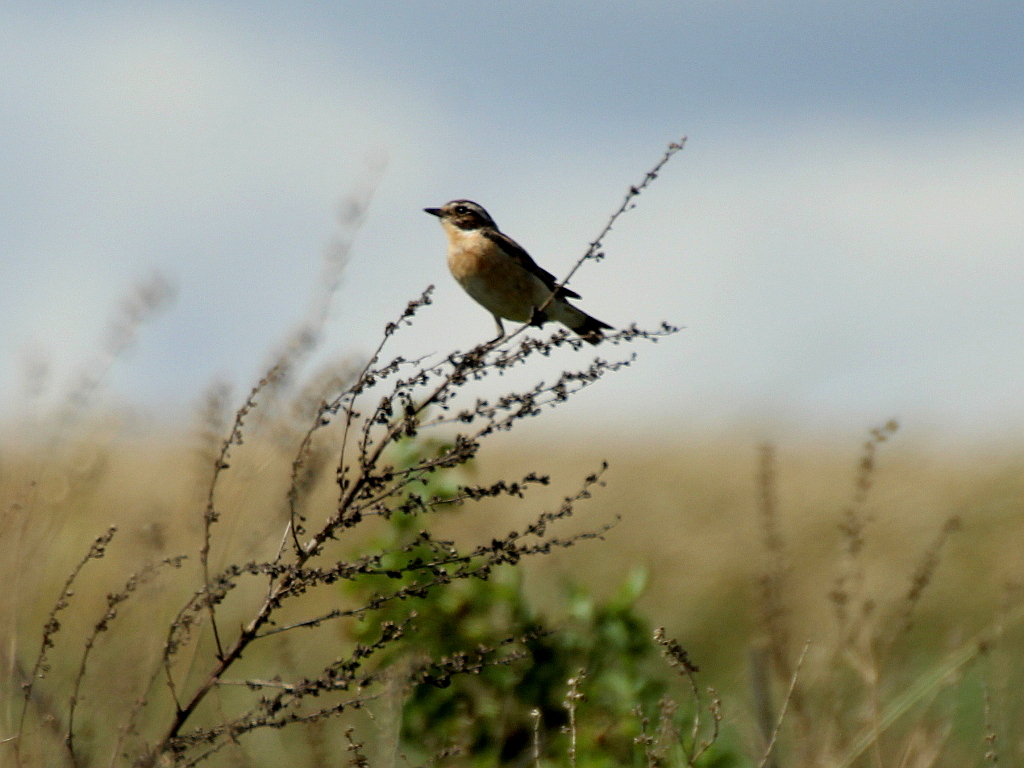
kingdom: Animalia
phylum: Chordata
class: Aves
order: Passeriformes
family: Muscicapidae
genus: Saxicola
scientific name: Saxicola rubetra
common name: Whinchat
